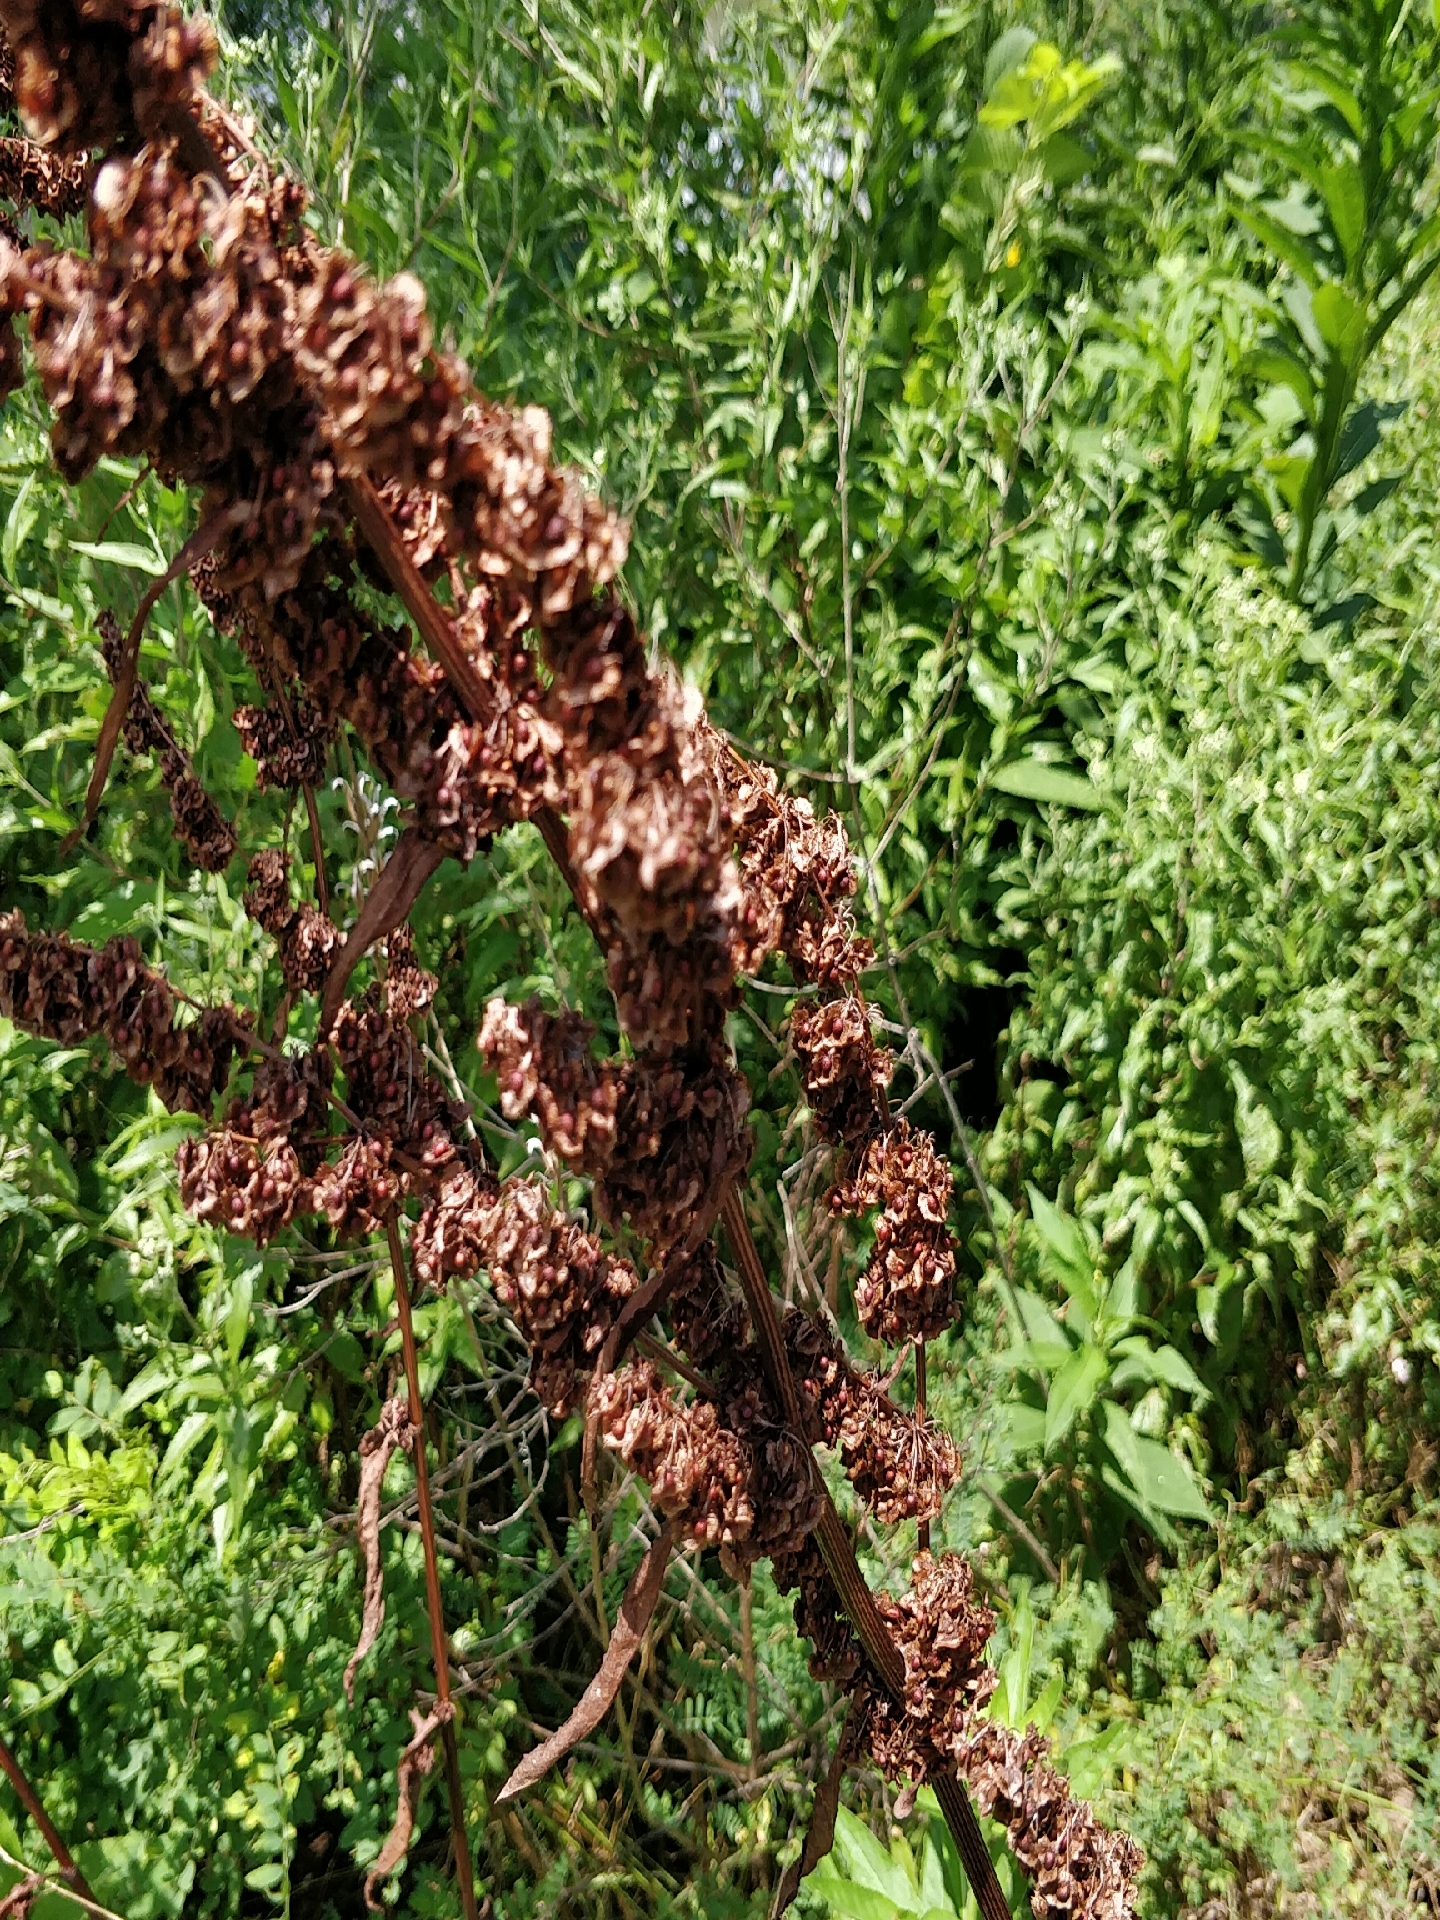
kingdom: Plantae
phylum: Tracheophyta
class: Magnoliopsida
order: Caryophyllales
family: Polygonaceae
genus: Rumex
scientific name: Rumex crispus
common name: Curled dock
